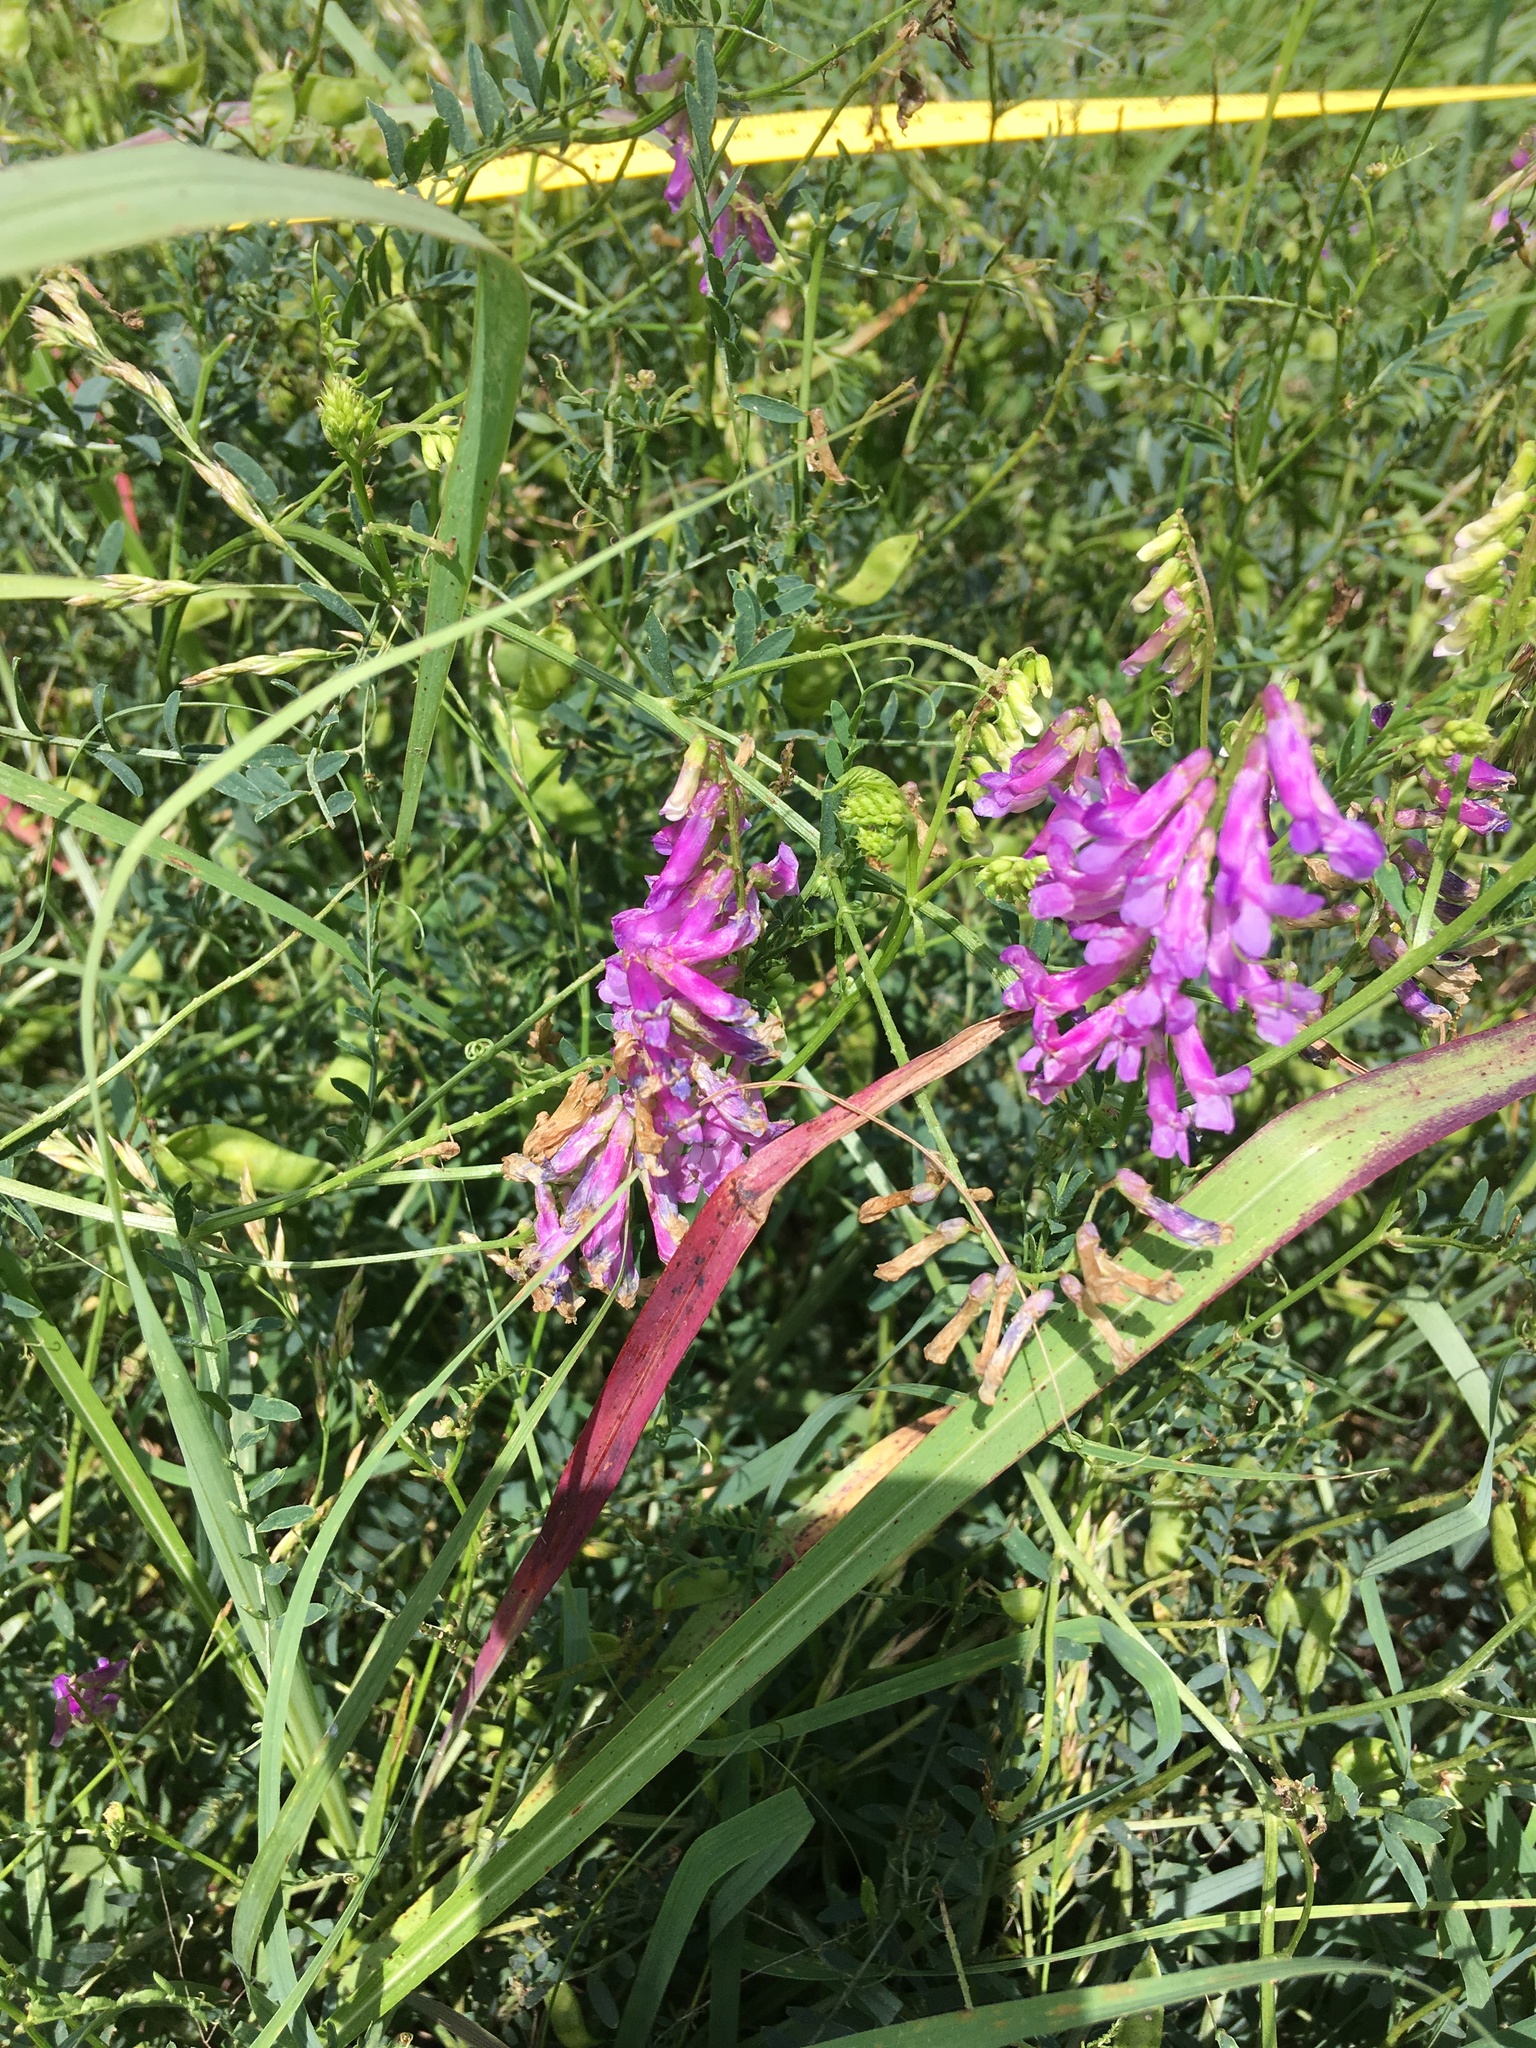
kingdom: Plantae
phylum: Tracheophyta
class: Magnoliopsida
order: Fabales
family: Fabaceae
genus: Vicia
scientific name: Vicia villosa
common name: Fodder vetch
